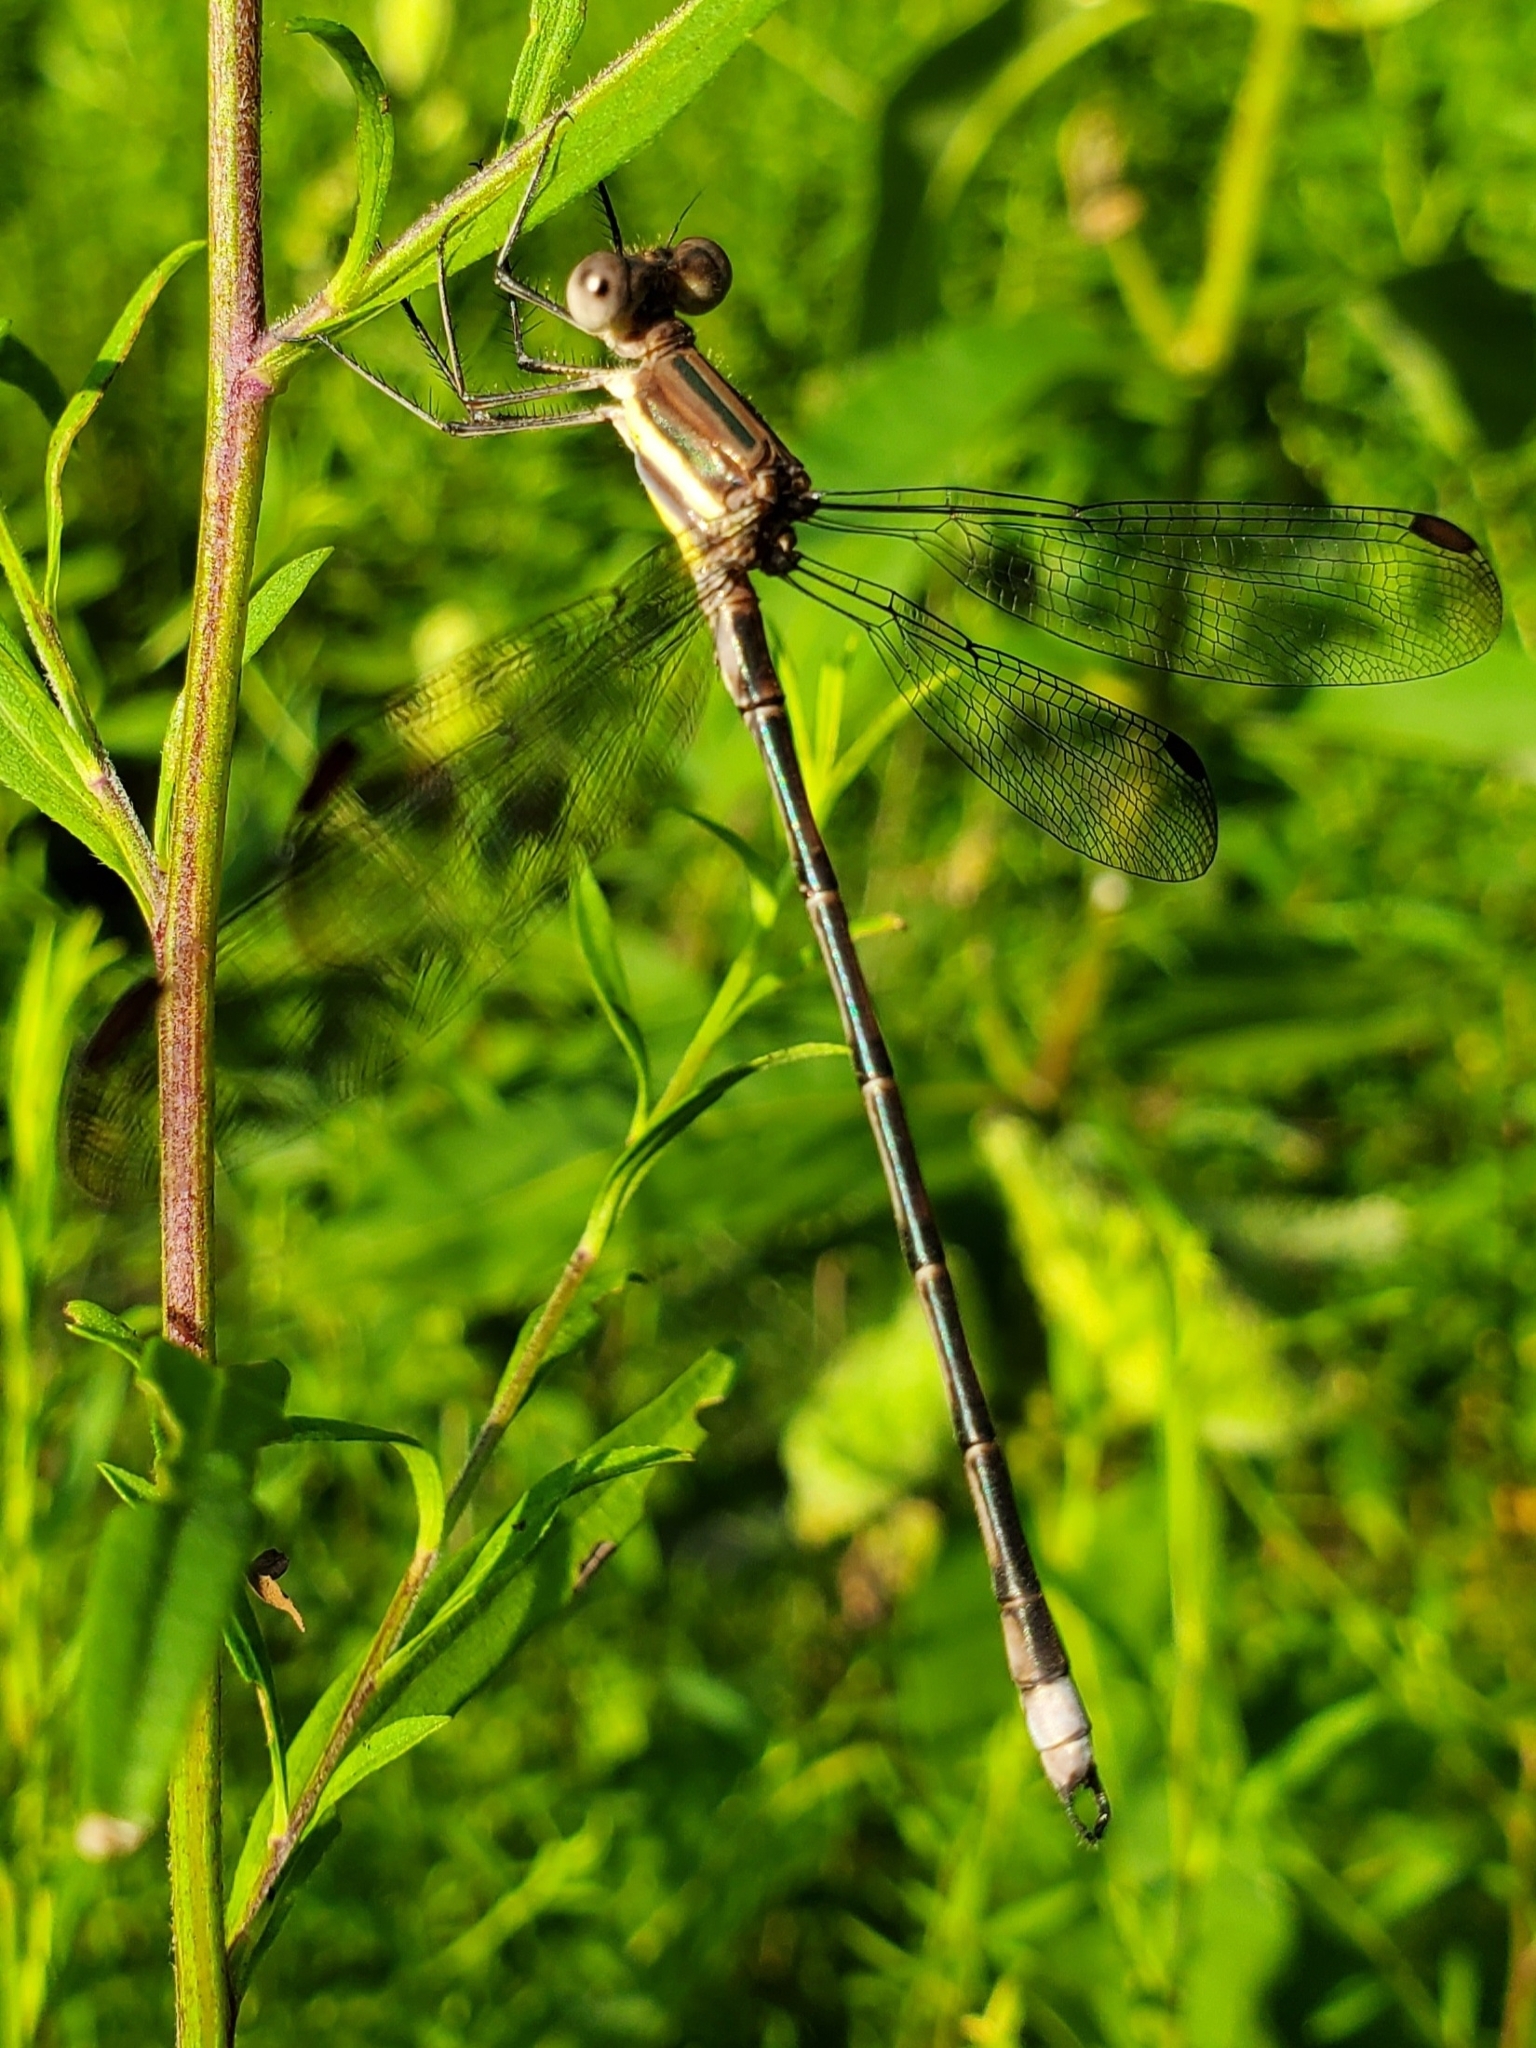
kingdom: Animalia
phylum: Arthropoda
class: Insecta
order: Odonata
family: Lestidae
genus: Archilestes
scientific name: Archilestes grandis
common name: Great spreadwing
